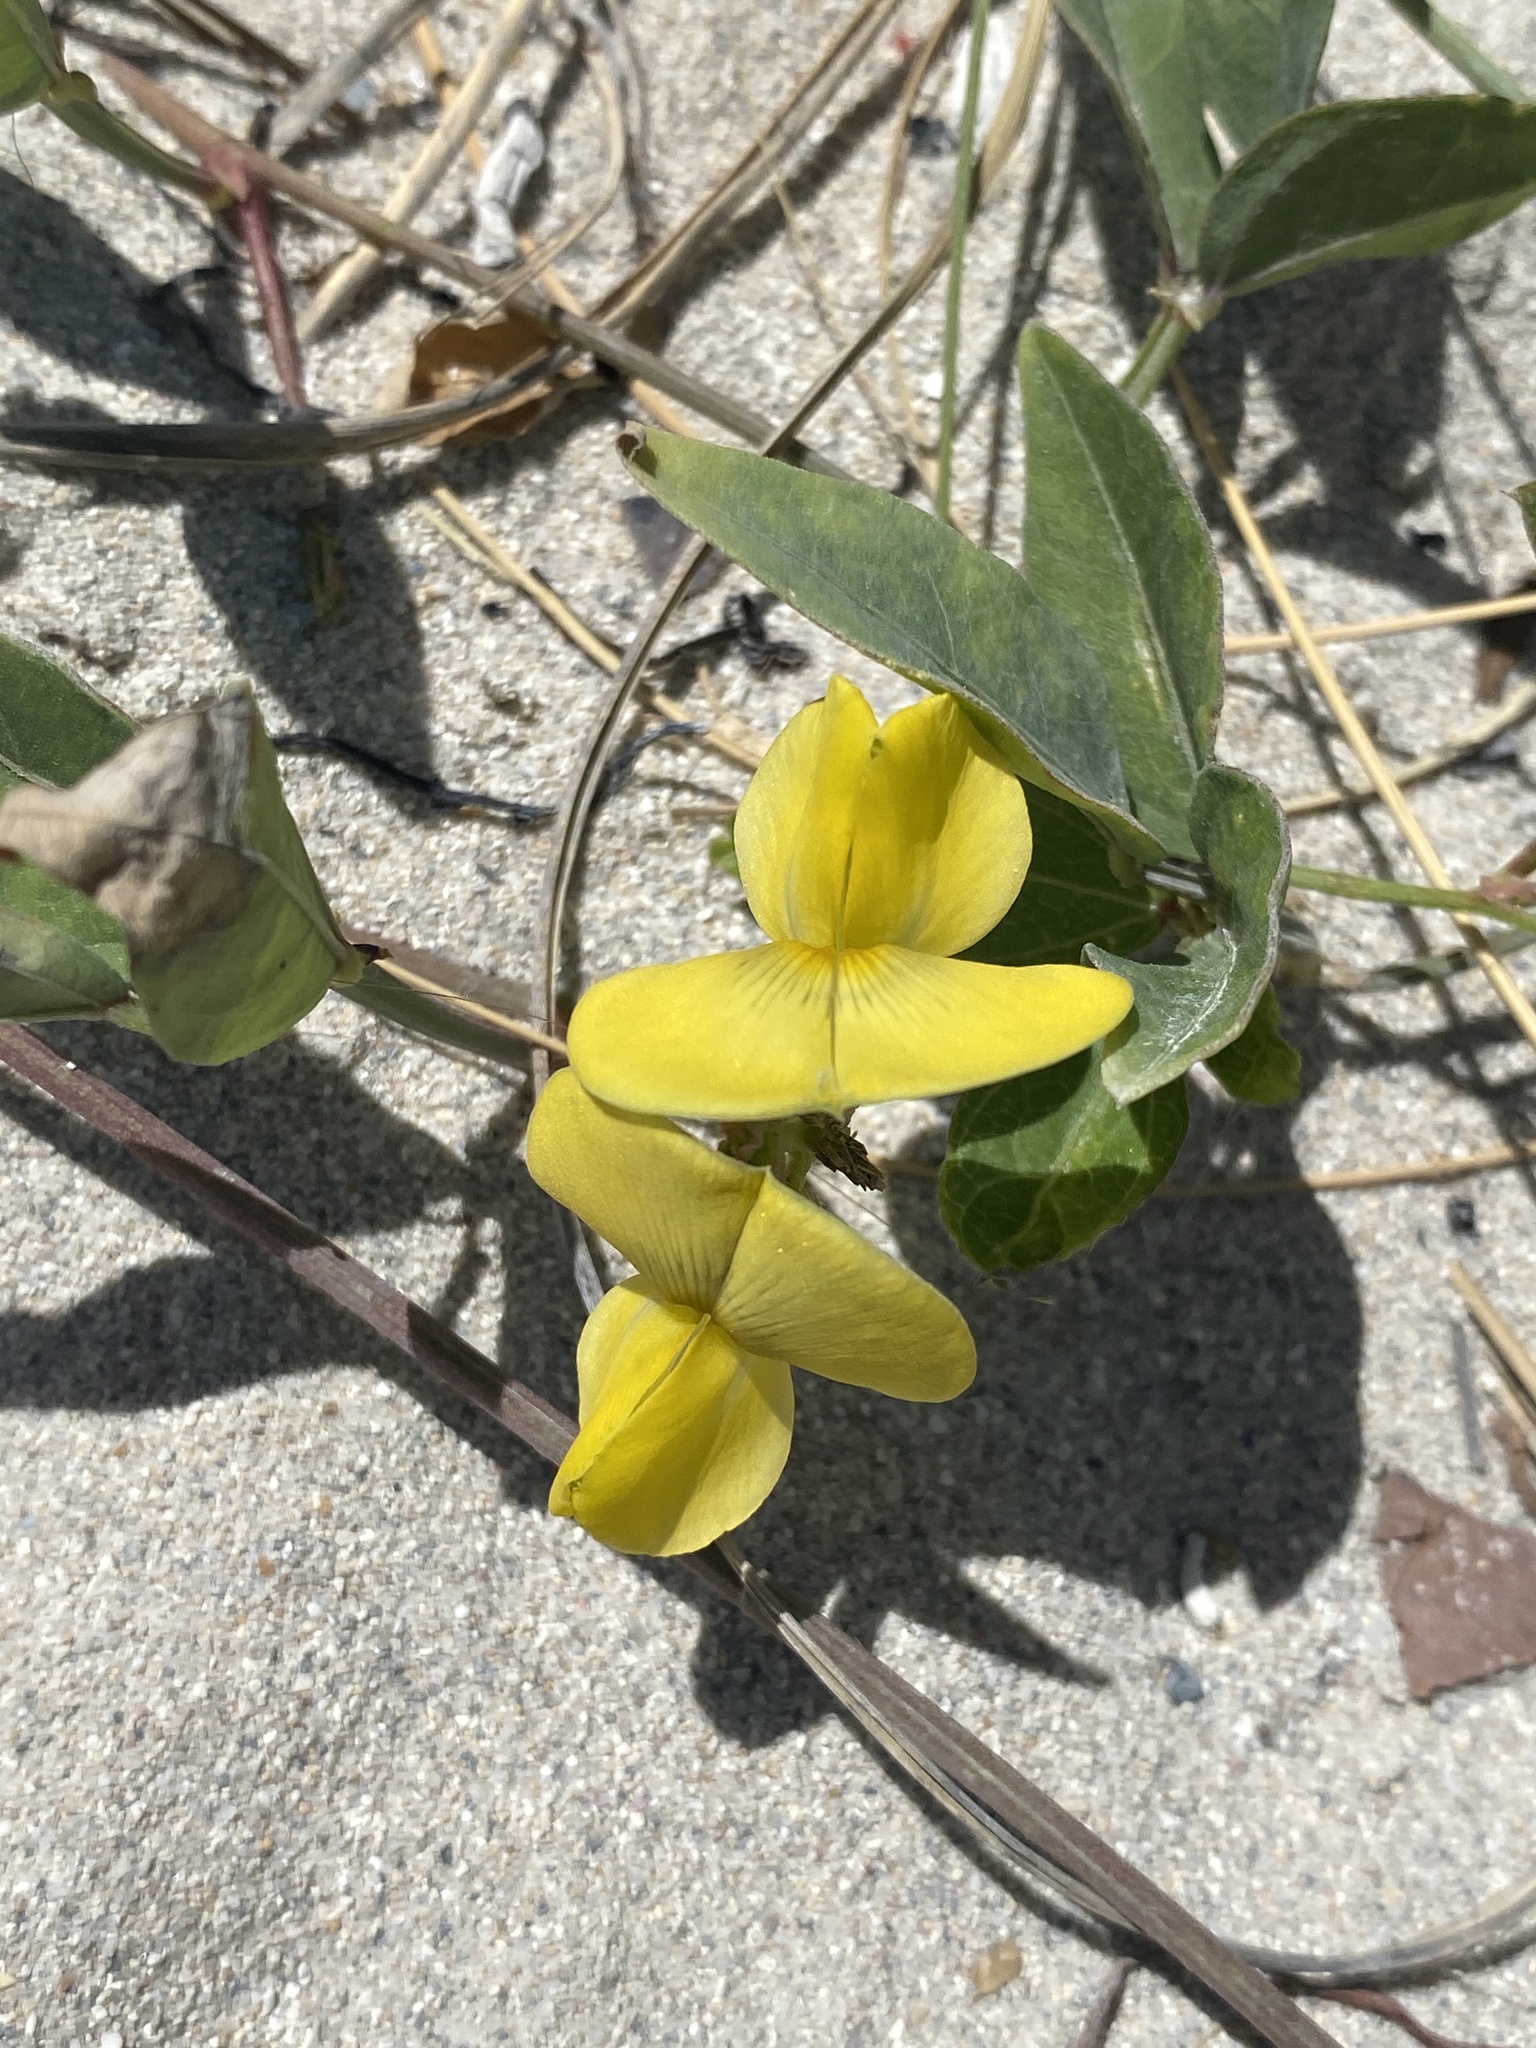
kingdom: Plantae
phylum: Tracheophyta
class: Magnoliopsida
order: Fabales
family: Fabaceae
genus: Vigna
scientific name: Vigna luteola
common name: Hairypod cowpea
